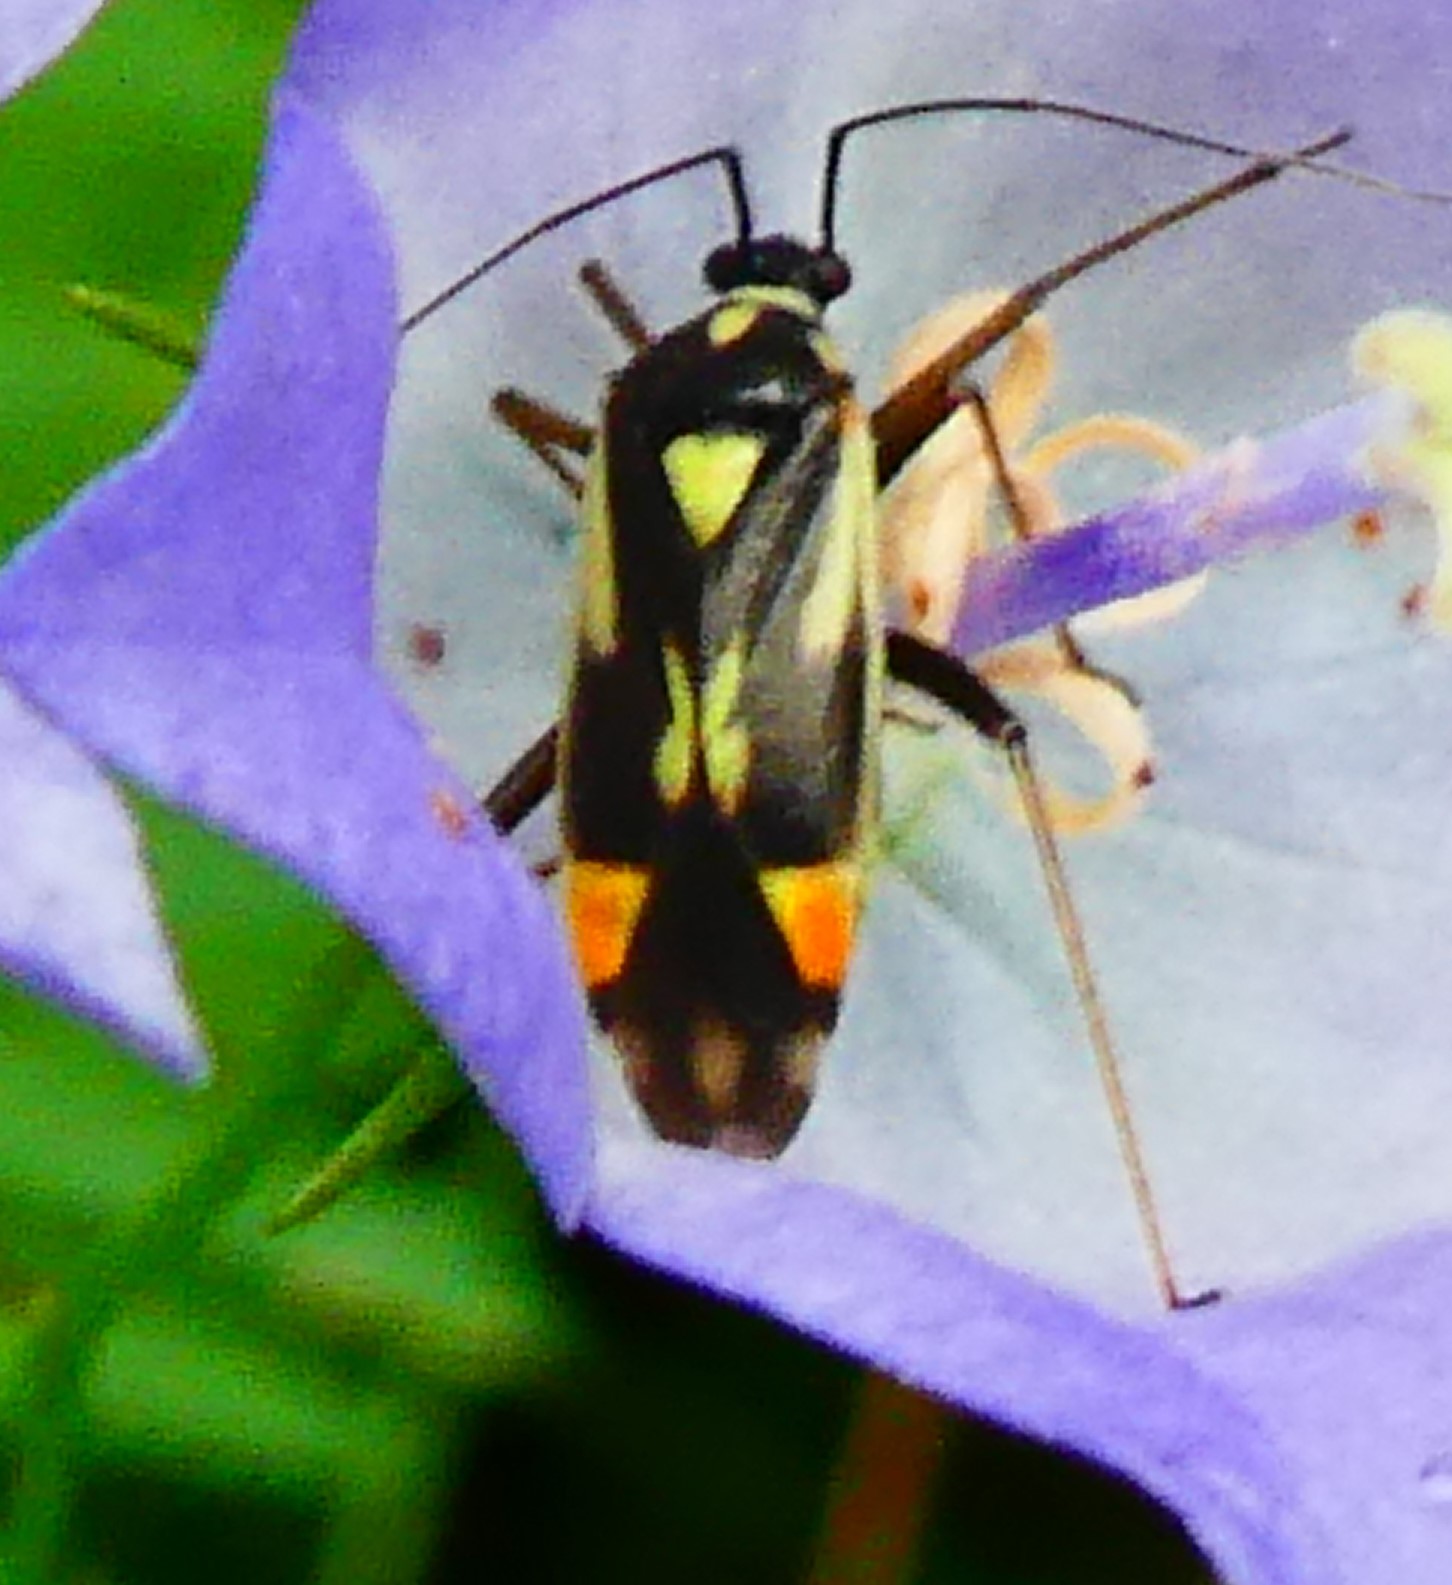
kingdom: Animalia
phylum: Arthropoda
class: Insecta
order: Hemiptera
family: Miridae
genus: Grypocoris
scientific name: Grypocoris stysi
